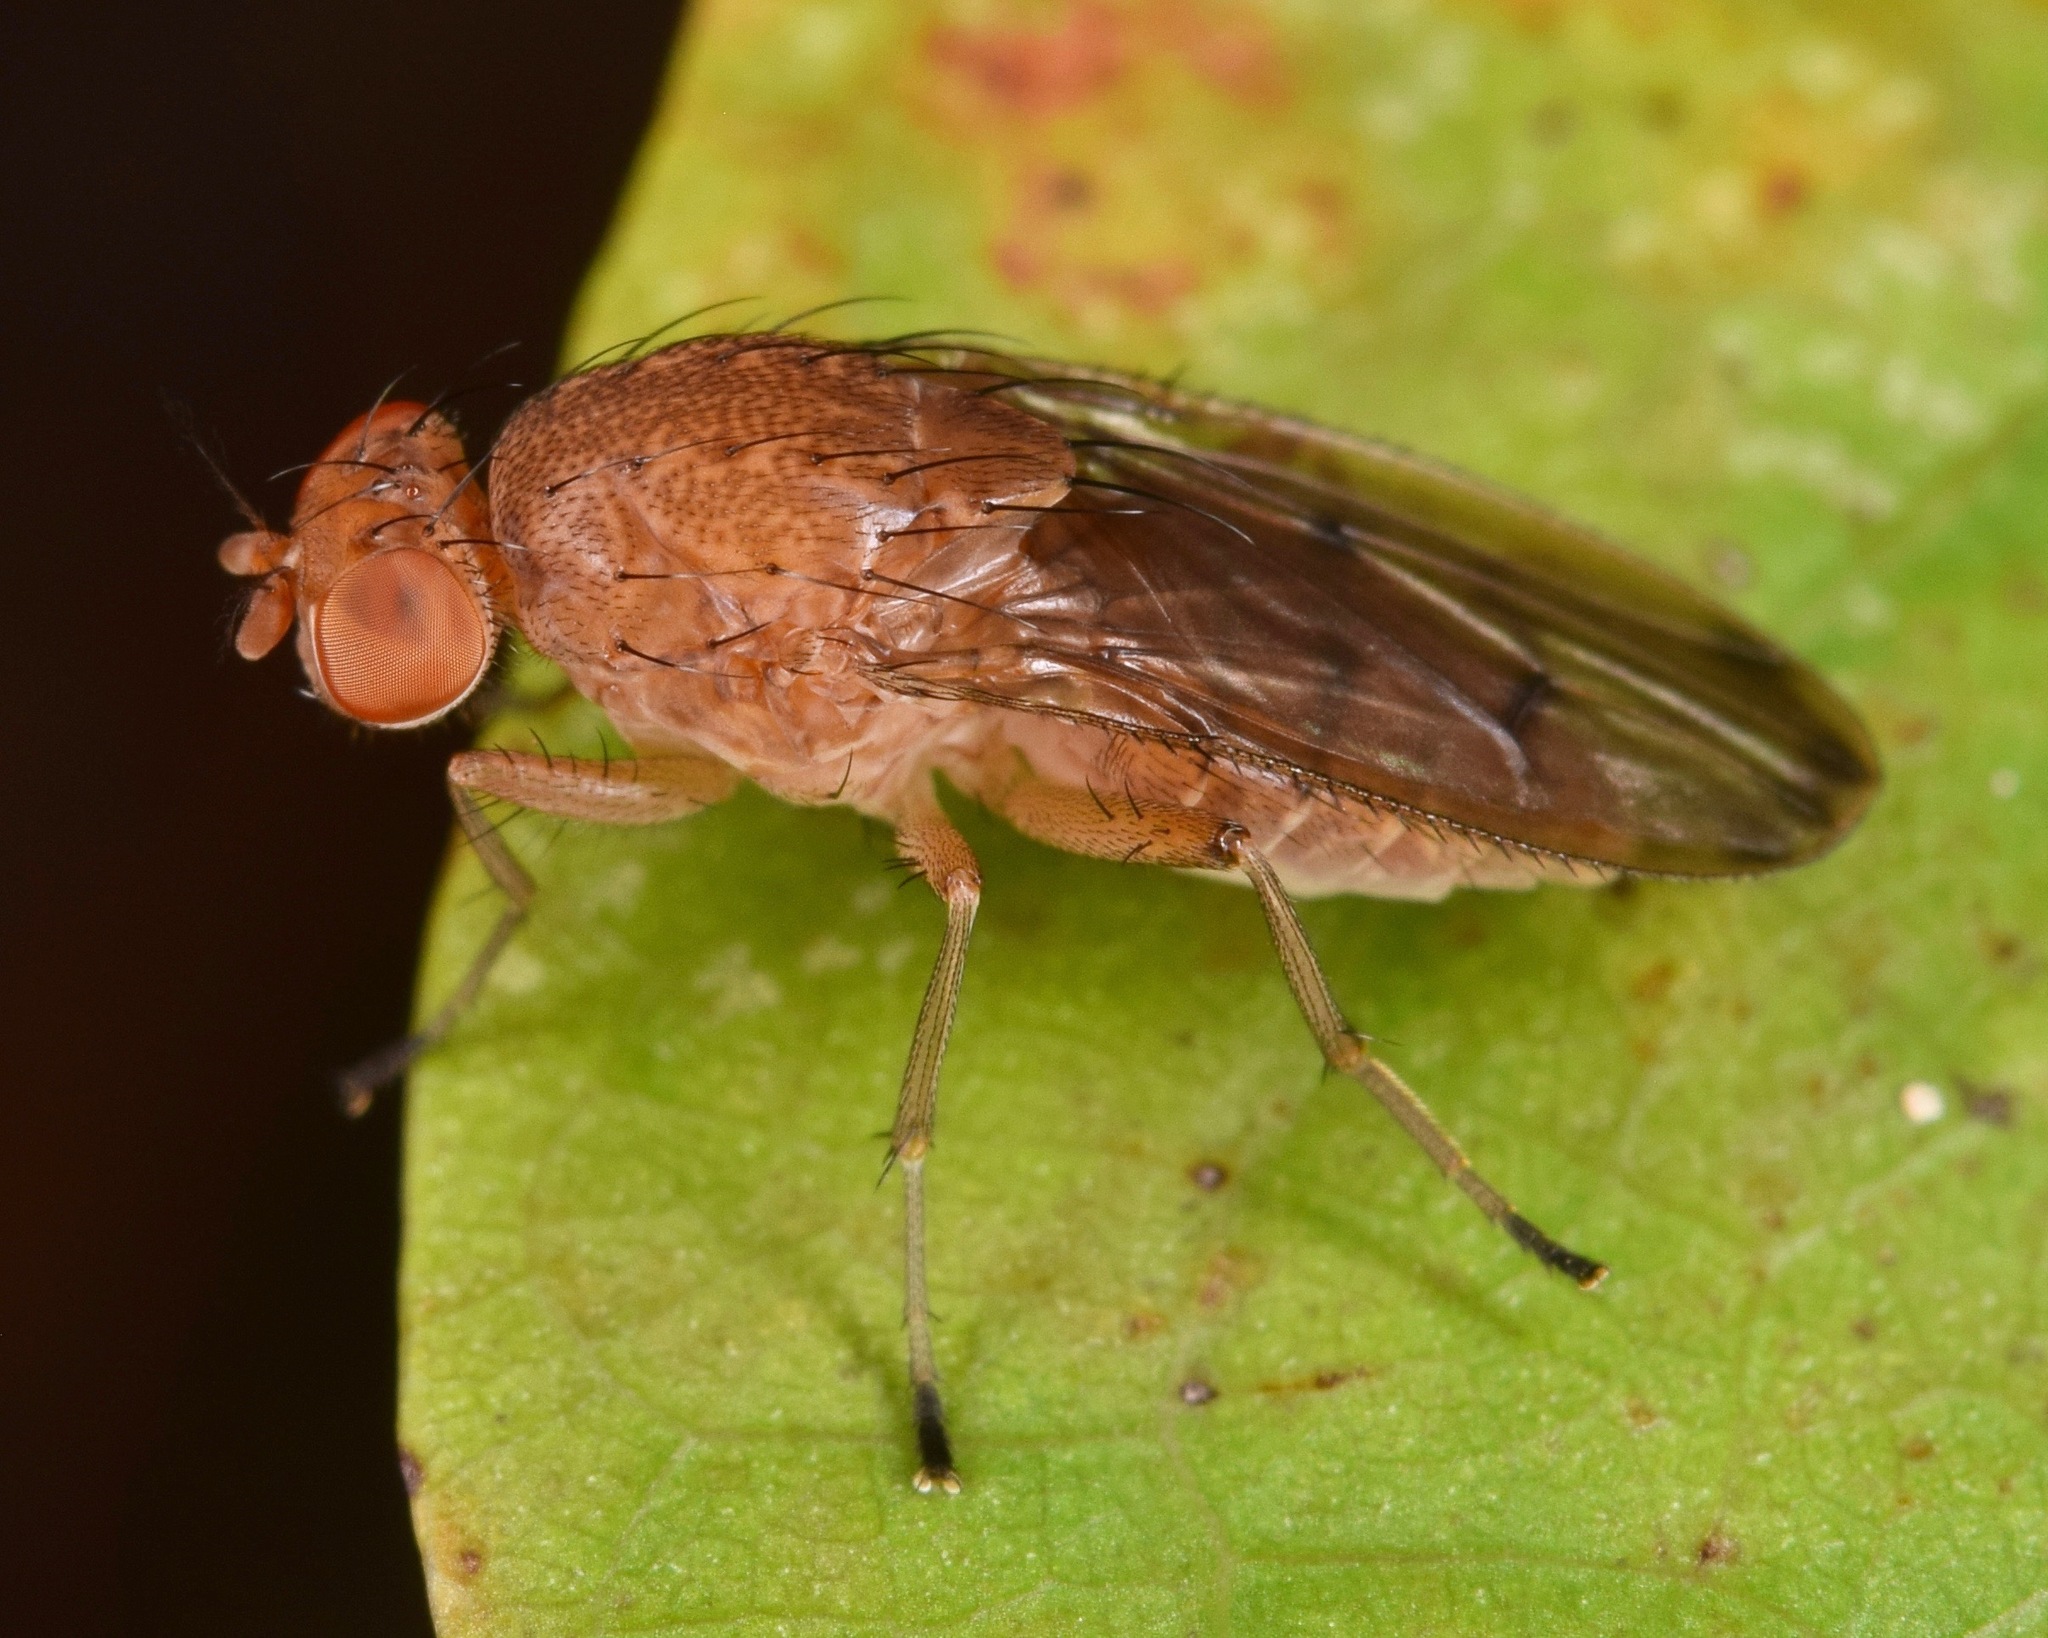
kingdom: Animalia
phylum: Arthropoda
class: Insecta
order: Diptera
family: Heleomyzidae
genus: Suillia
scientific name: Suillia quinquepunctata
